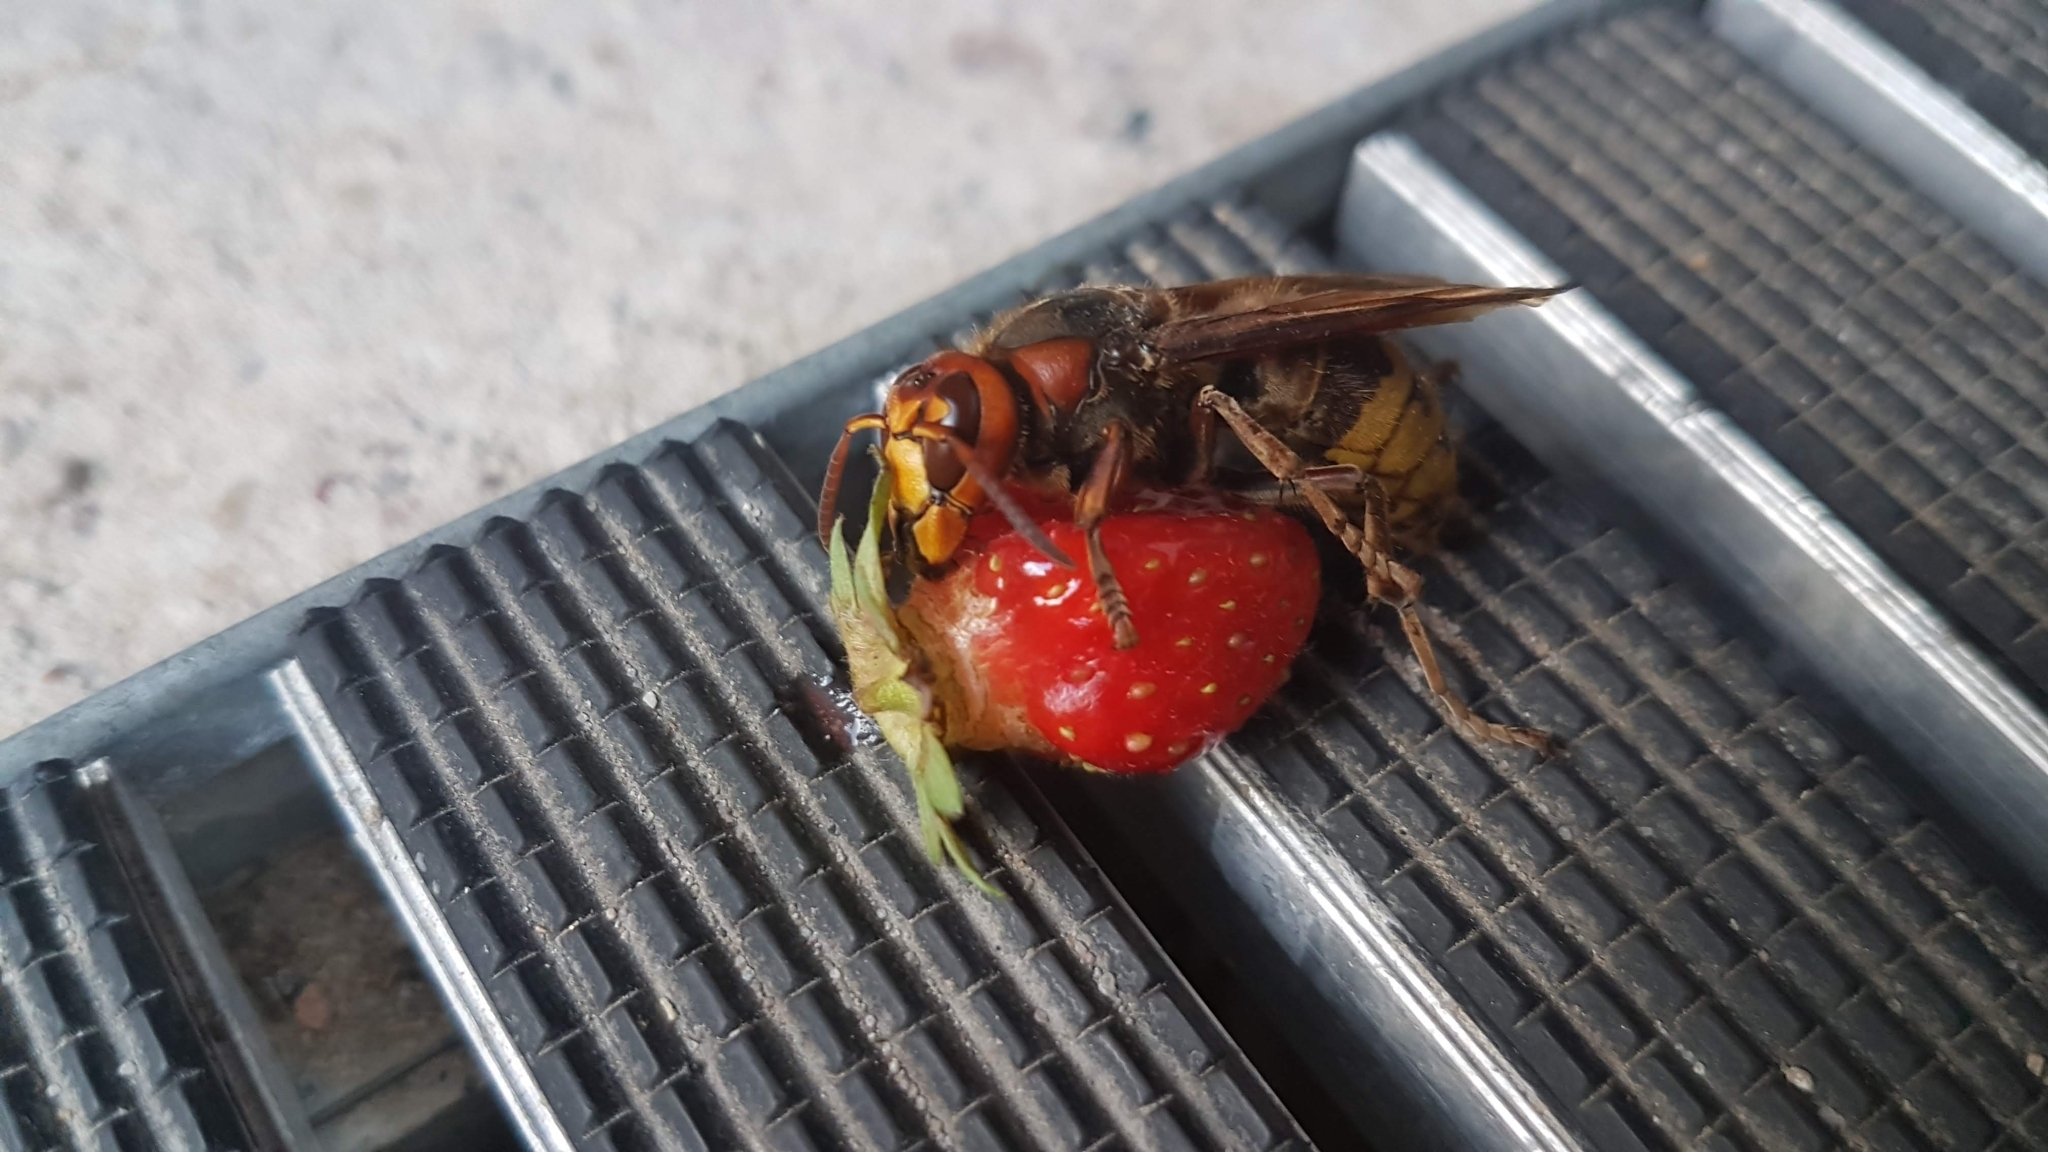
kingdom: Animalia
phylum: Arthropoda
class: Insecta
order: Hymenoptera
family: Vespidae
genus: Vespa
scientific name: Vespa crabro
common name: Hornet
